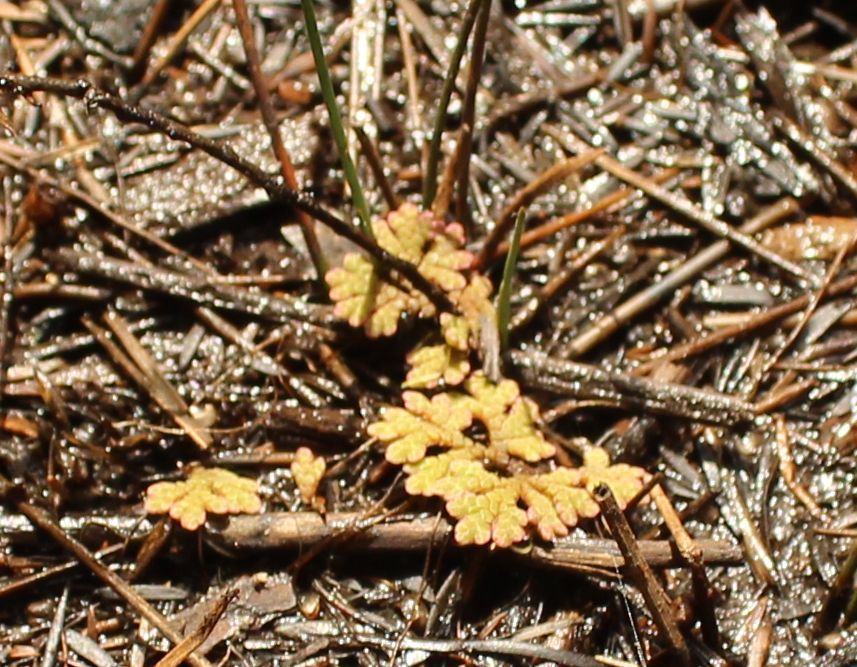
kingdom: Plantae
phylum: Tracheophyta
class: Polypodiopsida
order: Salviniales
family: Salviniaceae
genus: Azolla
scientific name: Azolla rubra
